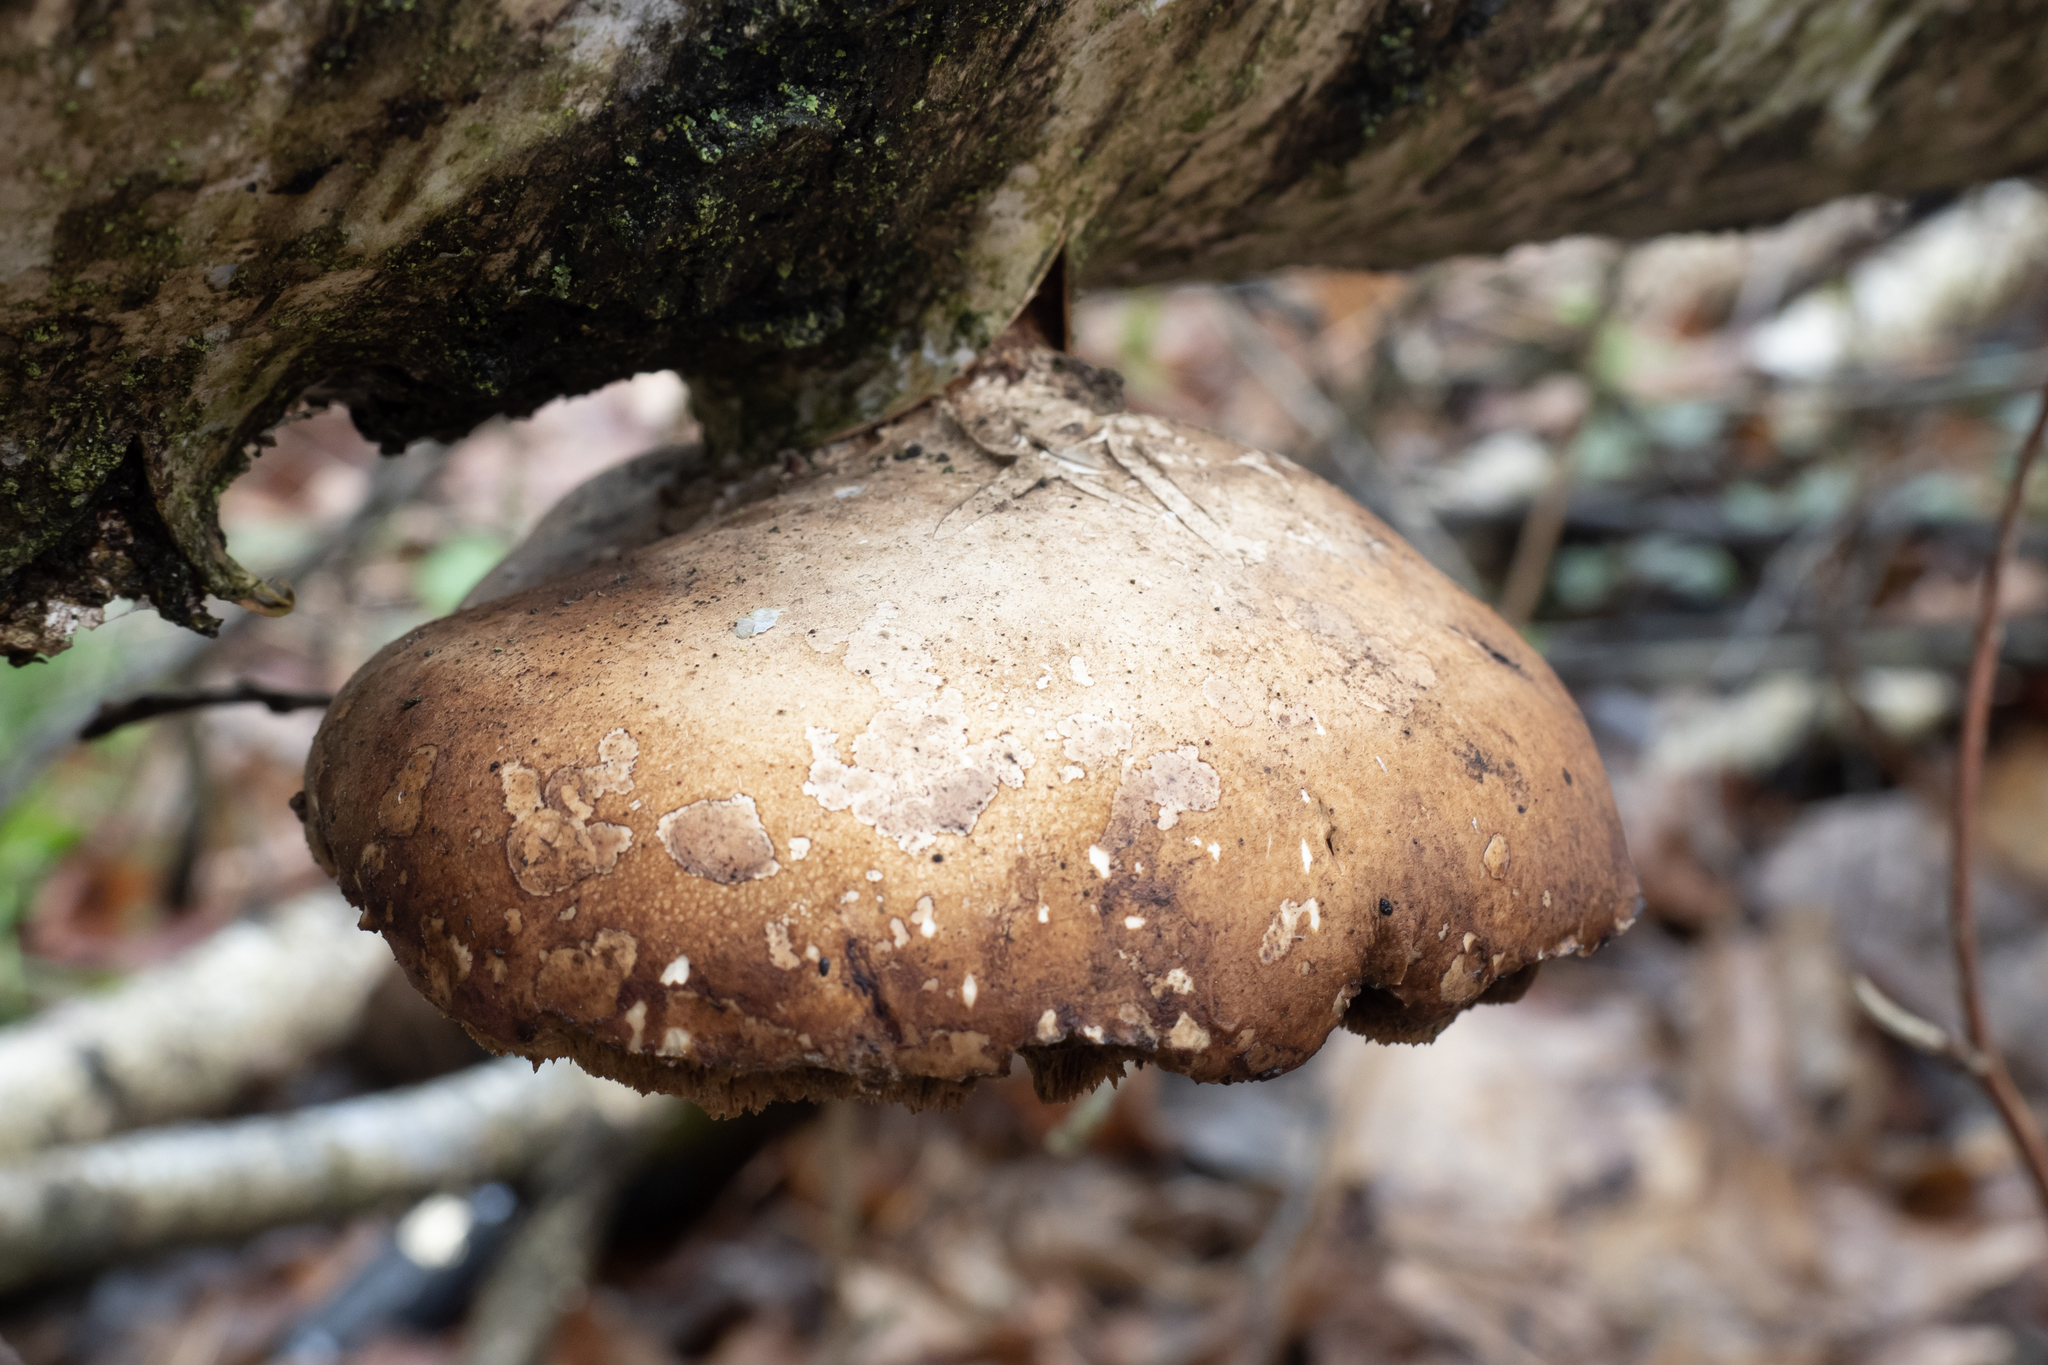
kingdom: Fungi
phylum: Basidiomycota
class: Agaricomycetes
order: Polyporales
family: Fomitopsidaceae
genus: Fomitopsis
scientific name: Fomitopsis betulina
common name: Birch polypore
